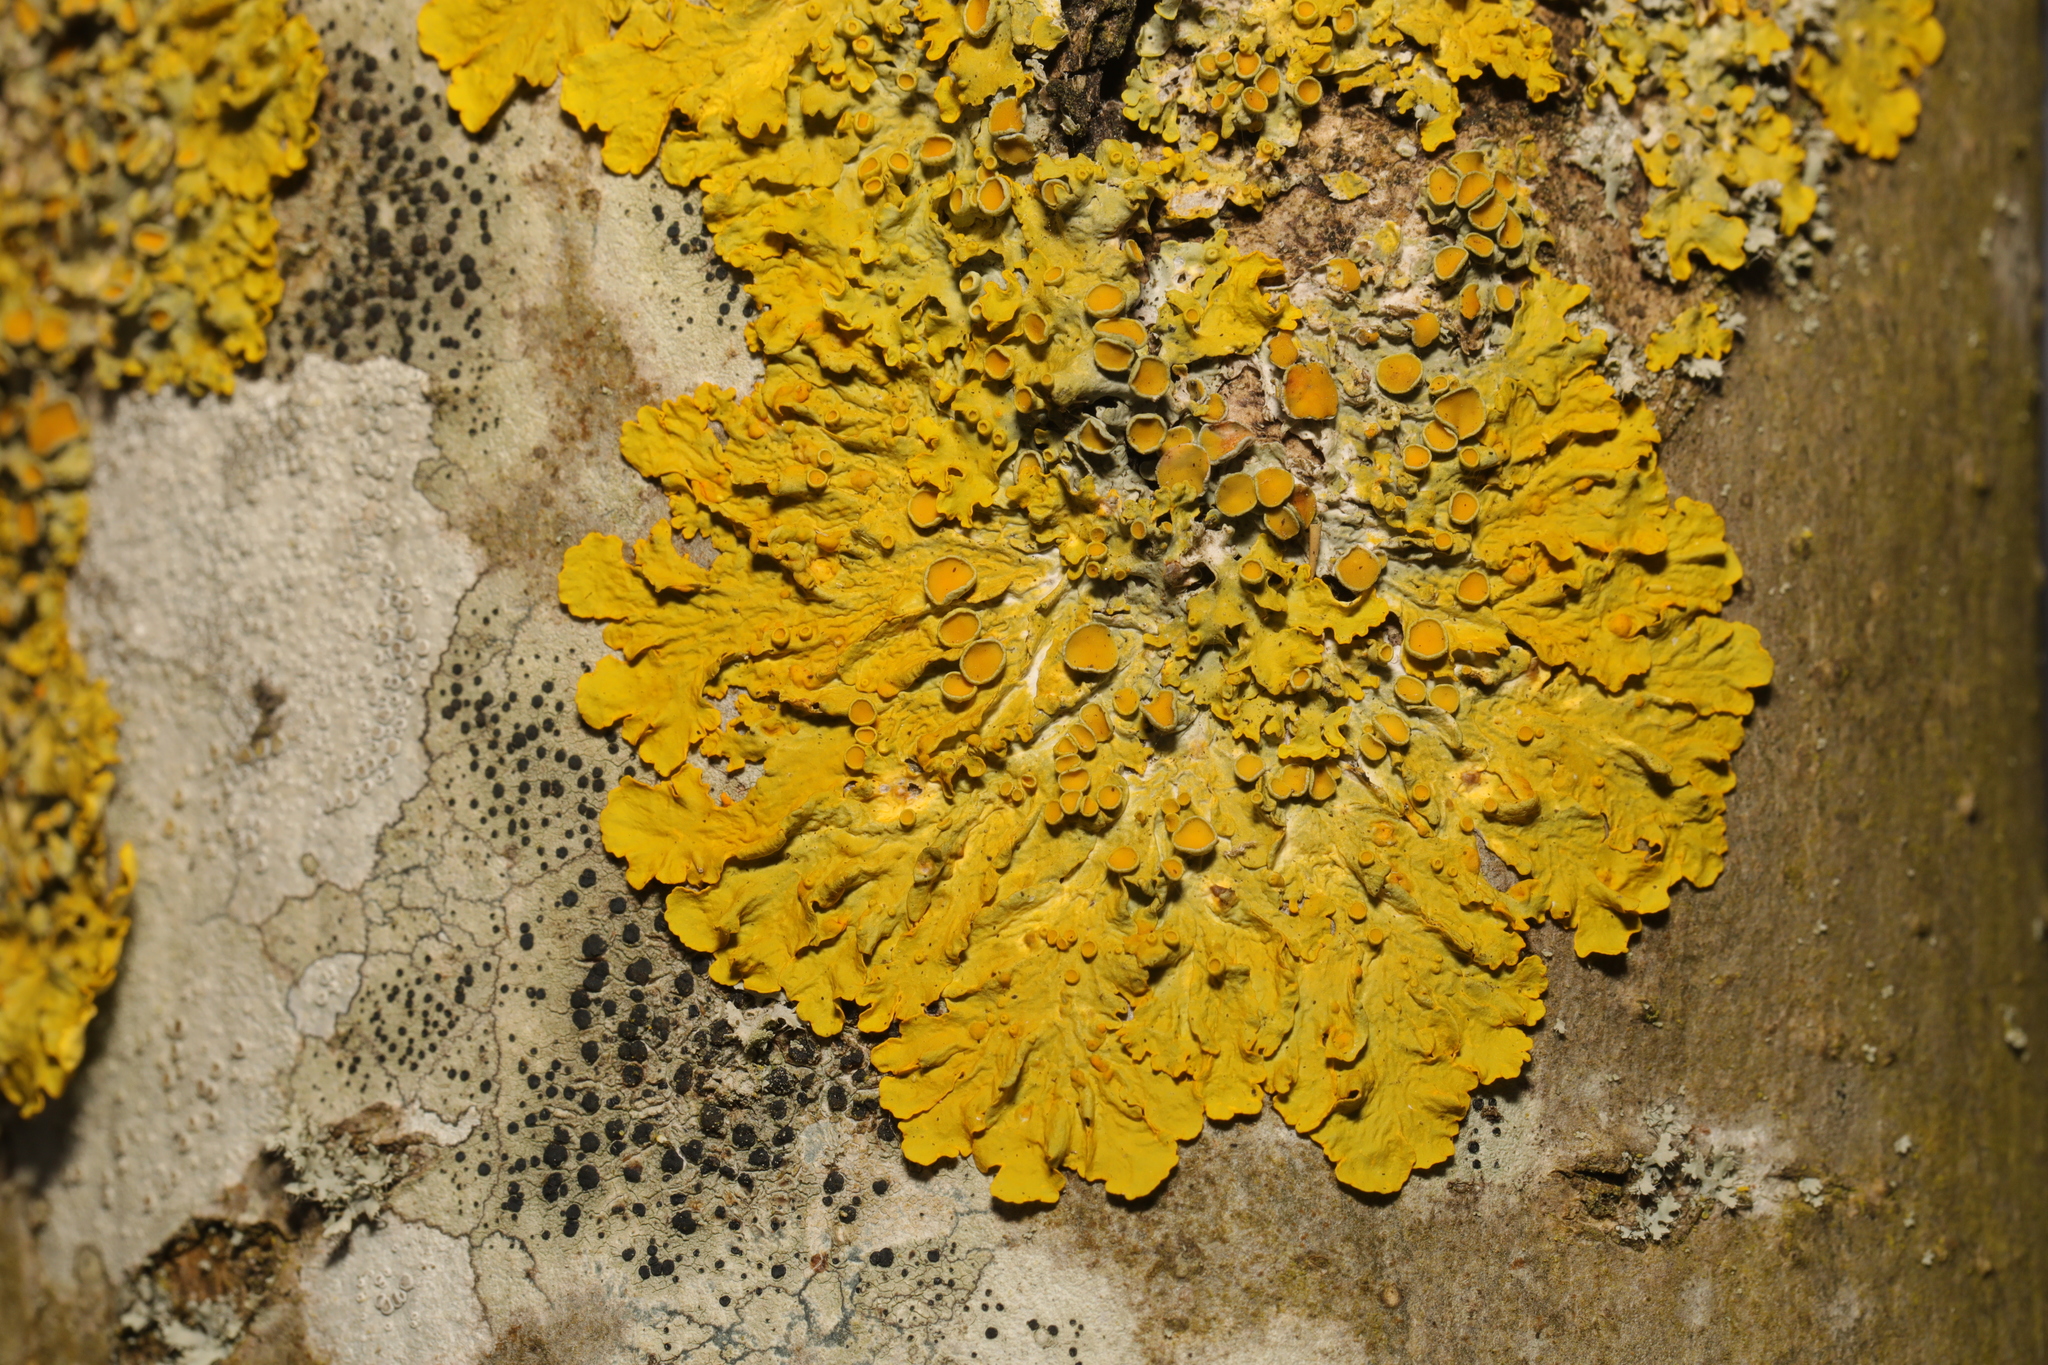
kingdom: Fungi
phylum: Ascomycota
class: Lecanoromycetes
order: Teloschistales
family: Teloschistaceae
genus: Xanthoria
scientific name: Xanthoria parietina
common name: Common orange lichen
